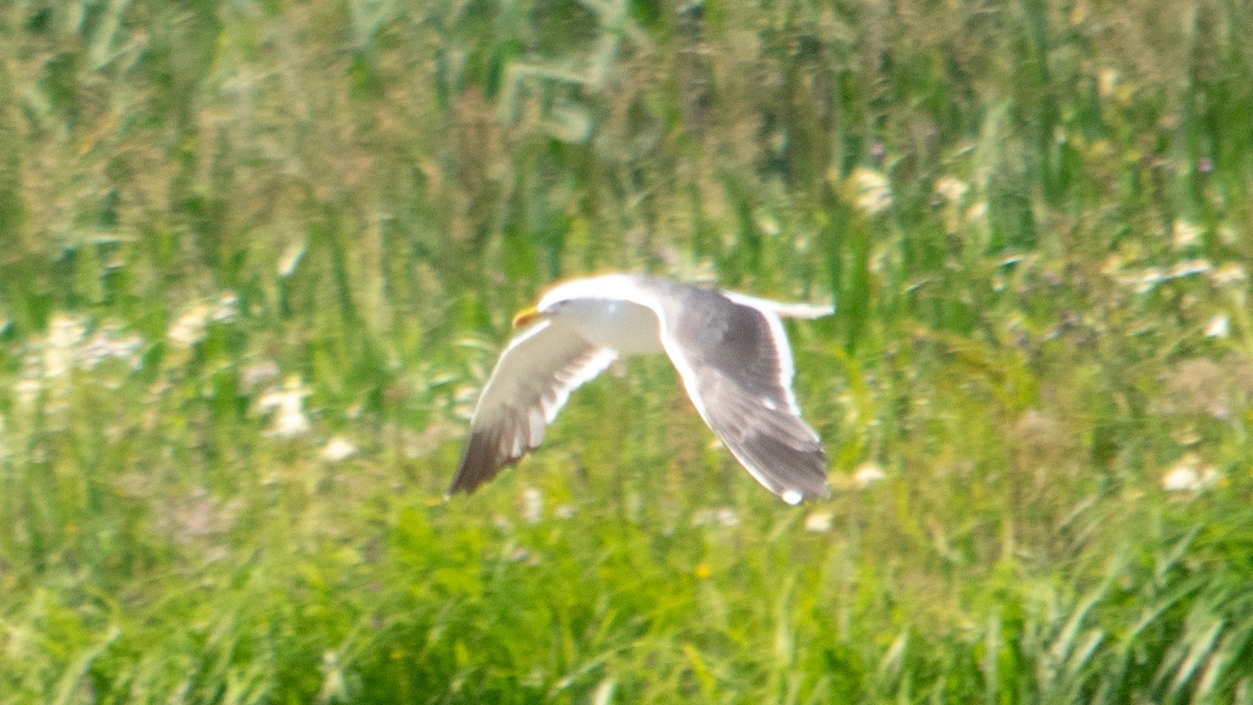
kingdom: Animalia
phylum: Chordata
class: Aves
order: Charadriiformes
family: Laridae
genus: Larus
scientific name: Larus fuscus
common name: Lesser black-backed gull
